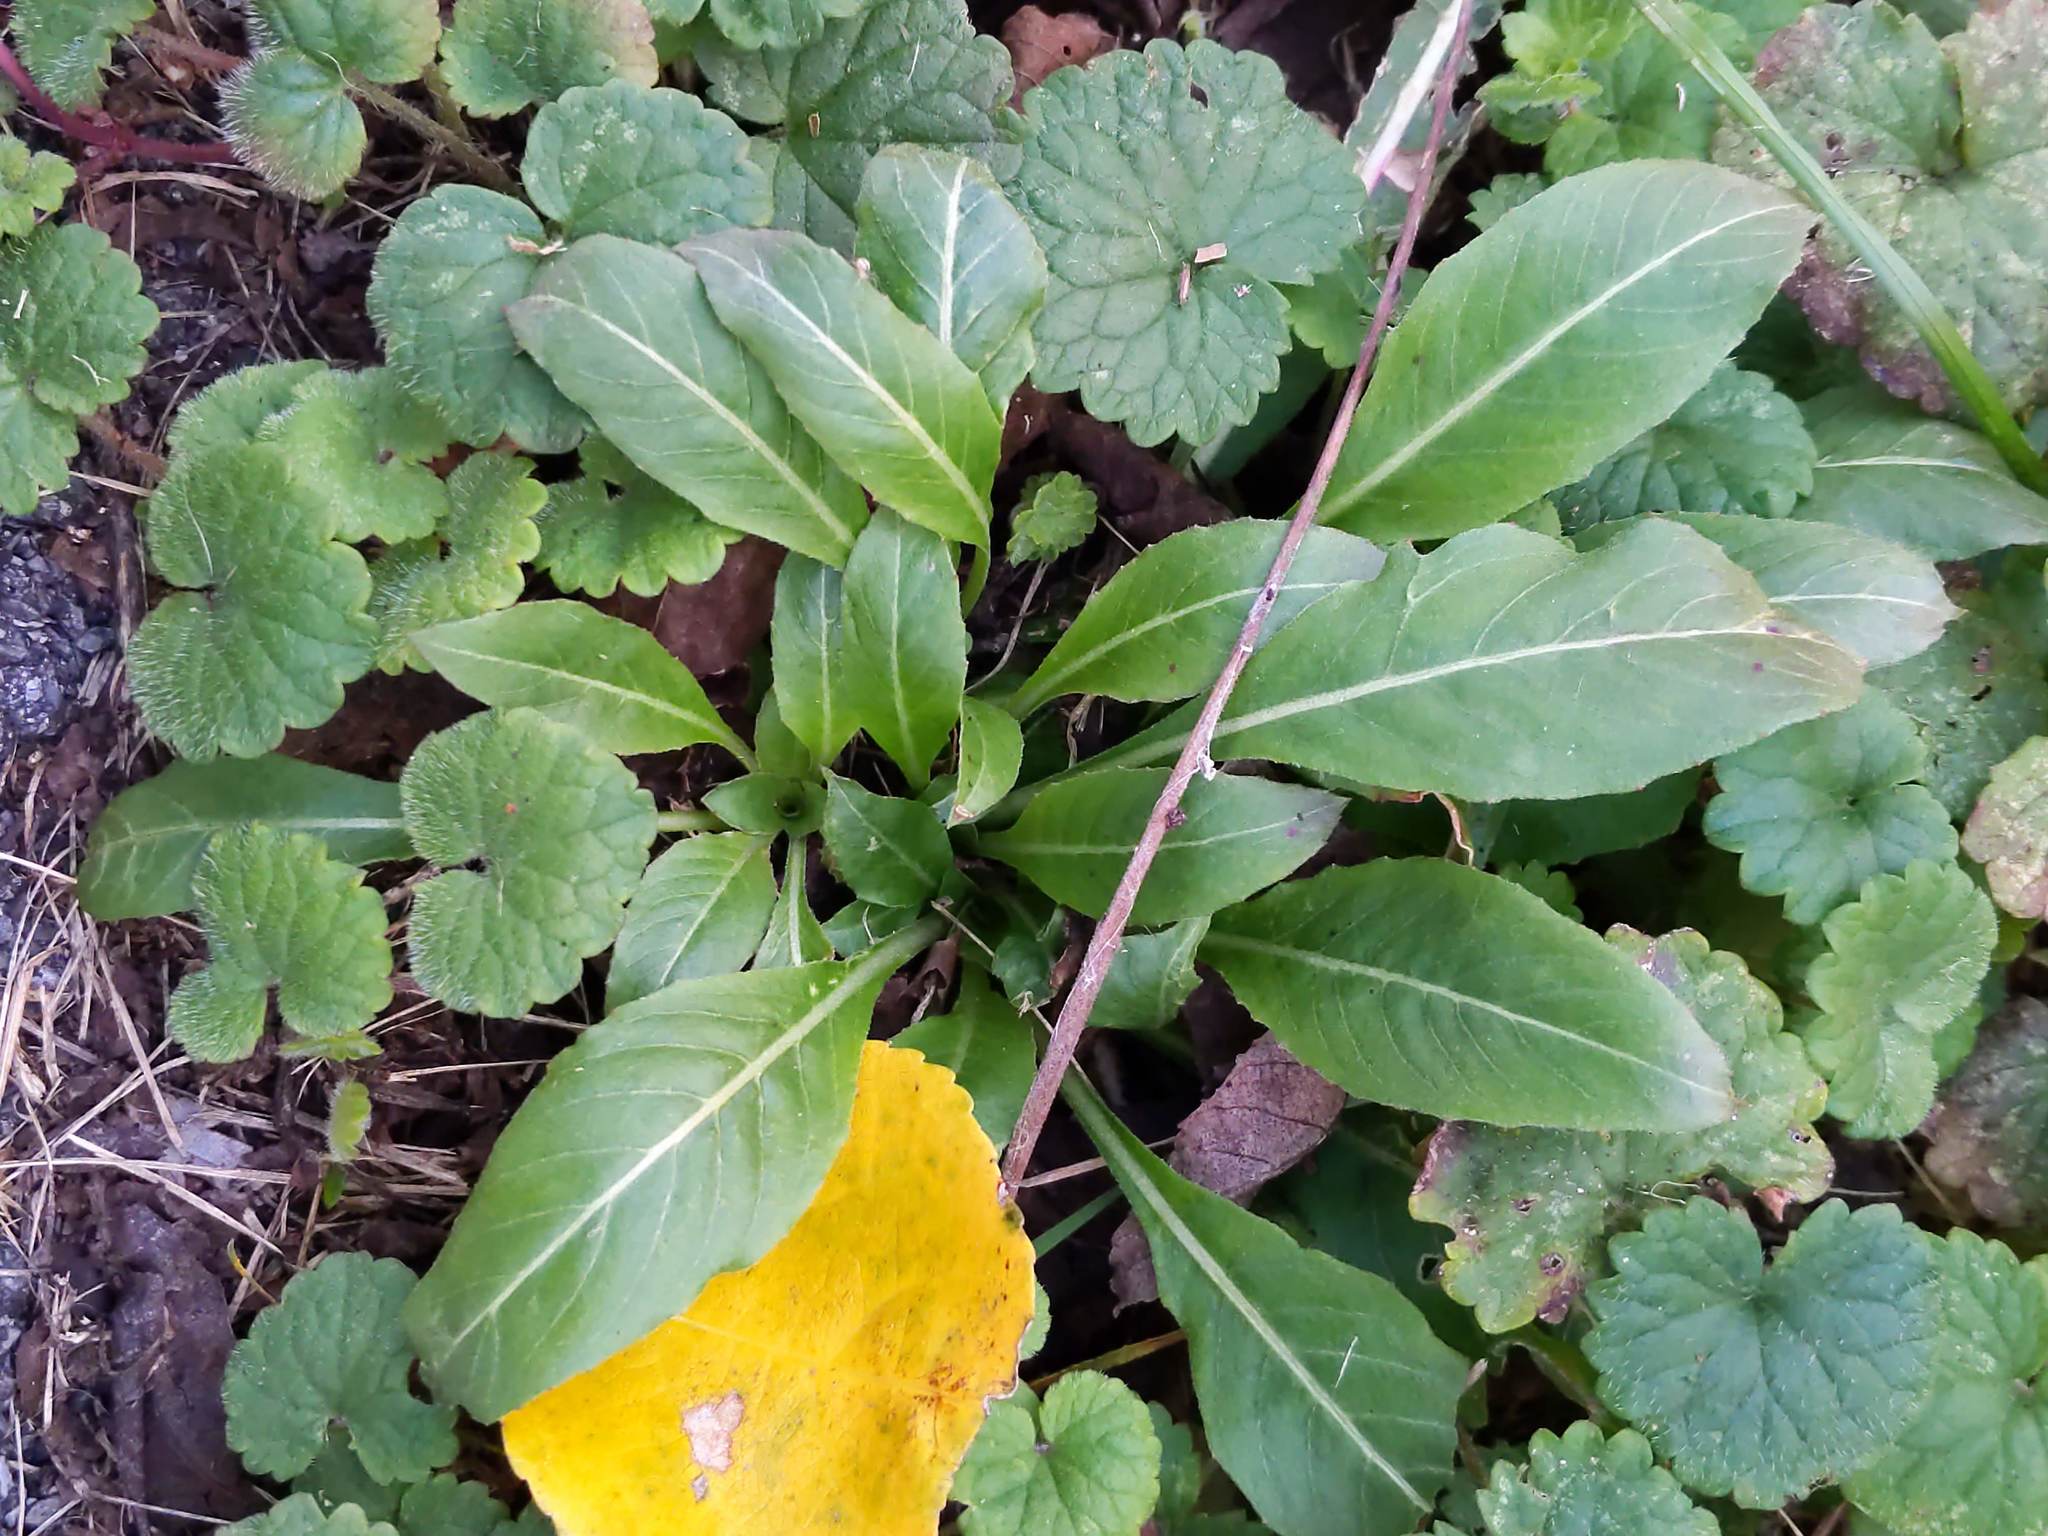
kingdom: Plantae
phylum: Tracheophyta
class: Magnoliopsida
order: Brassicales
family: Brassicaceae
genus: Hesperis
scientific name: Hesperis matronalis
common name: Dame's-violet
